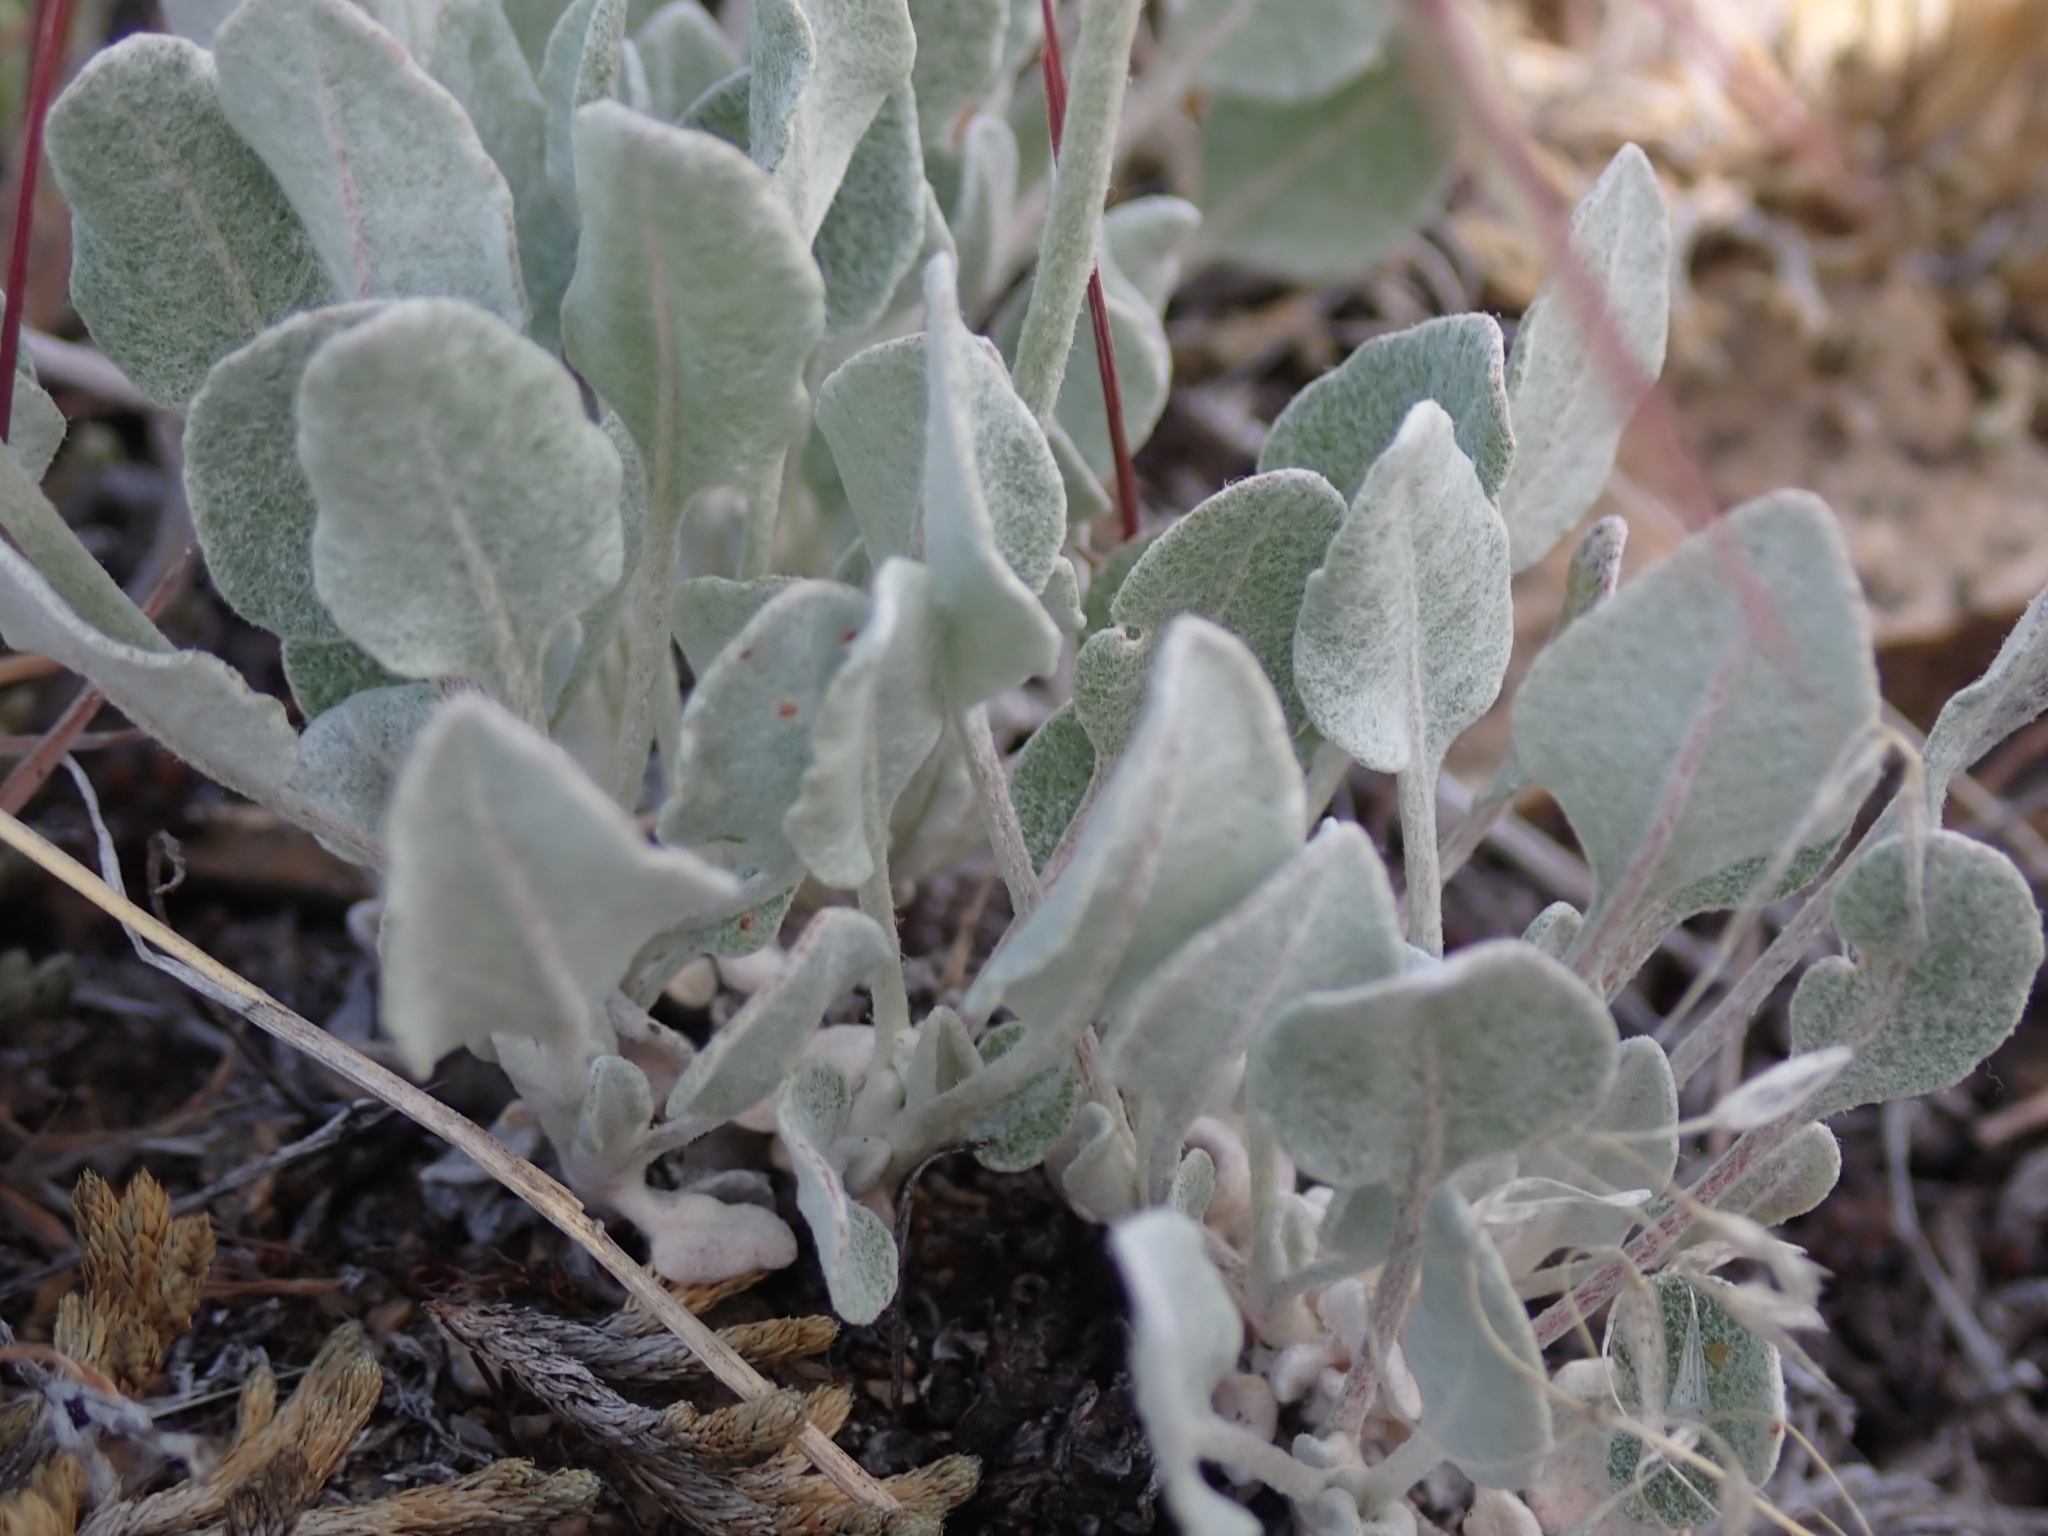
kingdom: Plantae
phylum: Tracheophyta
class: Magnoliopsida
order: Caryophyllales
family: Polygonaceae
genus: Eriogonum
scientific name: Eriogonum niveum
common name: Snow wild buckwheat
